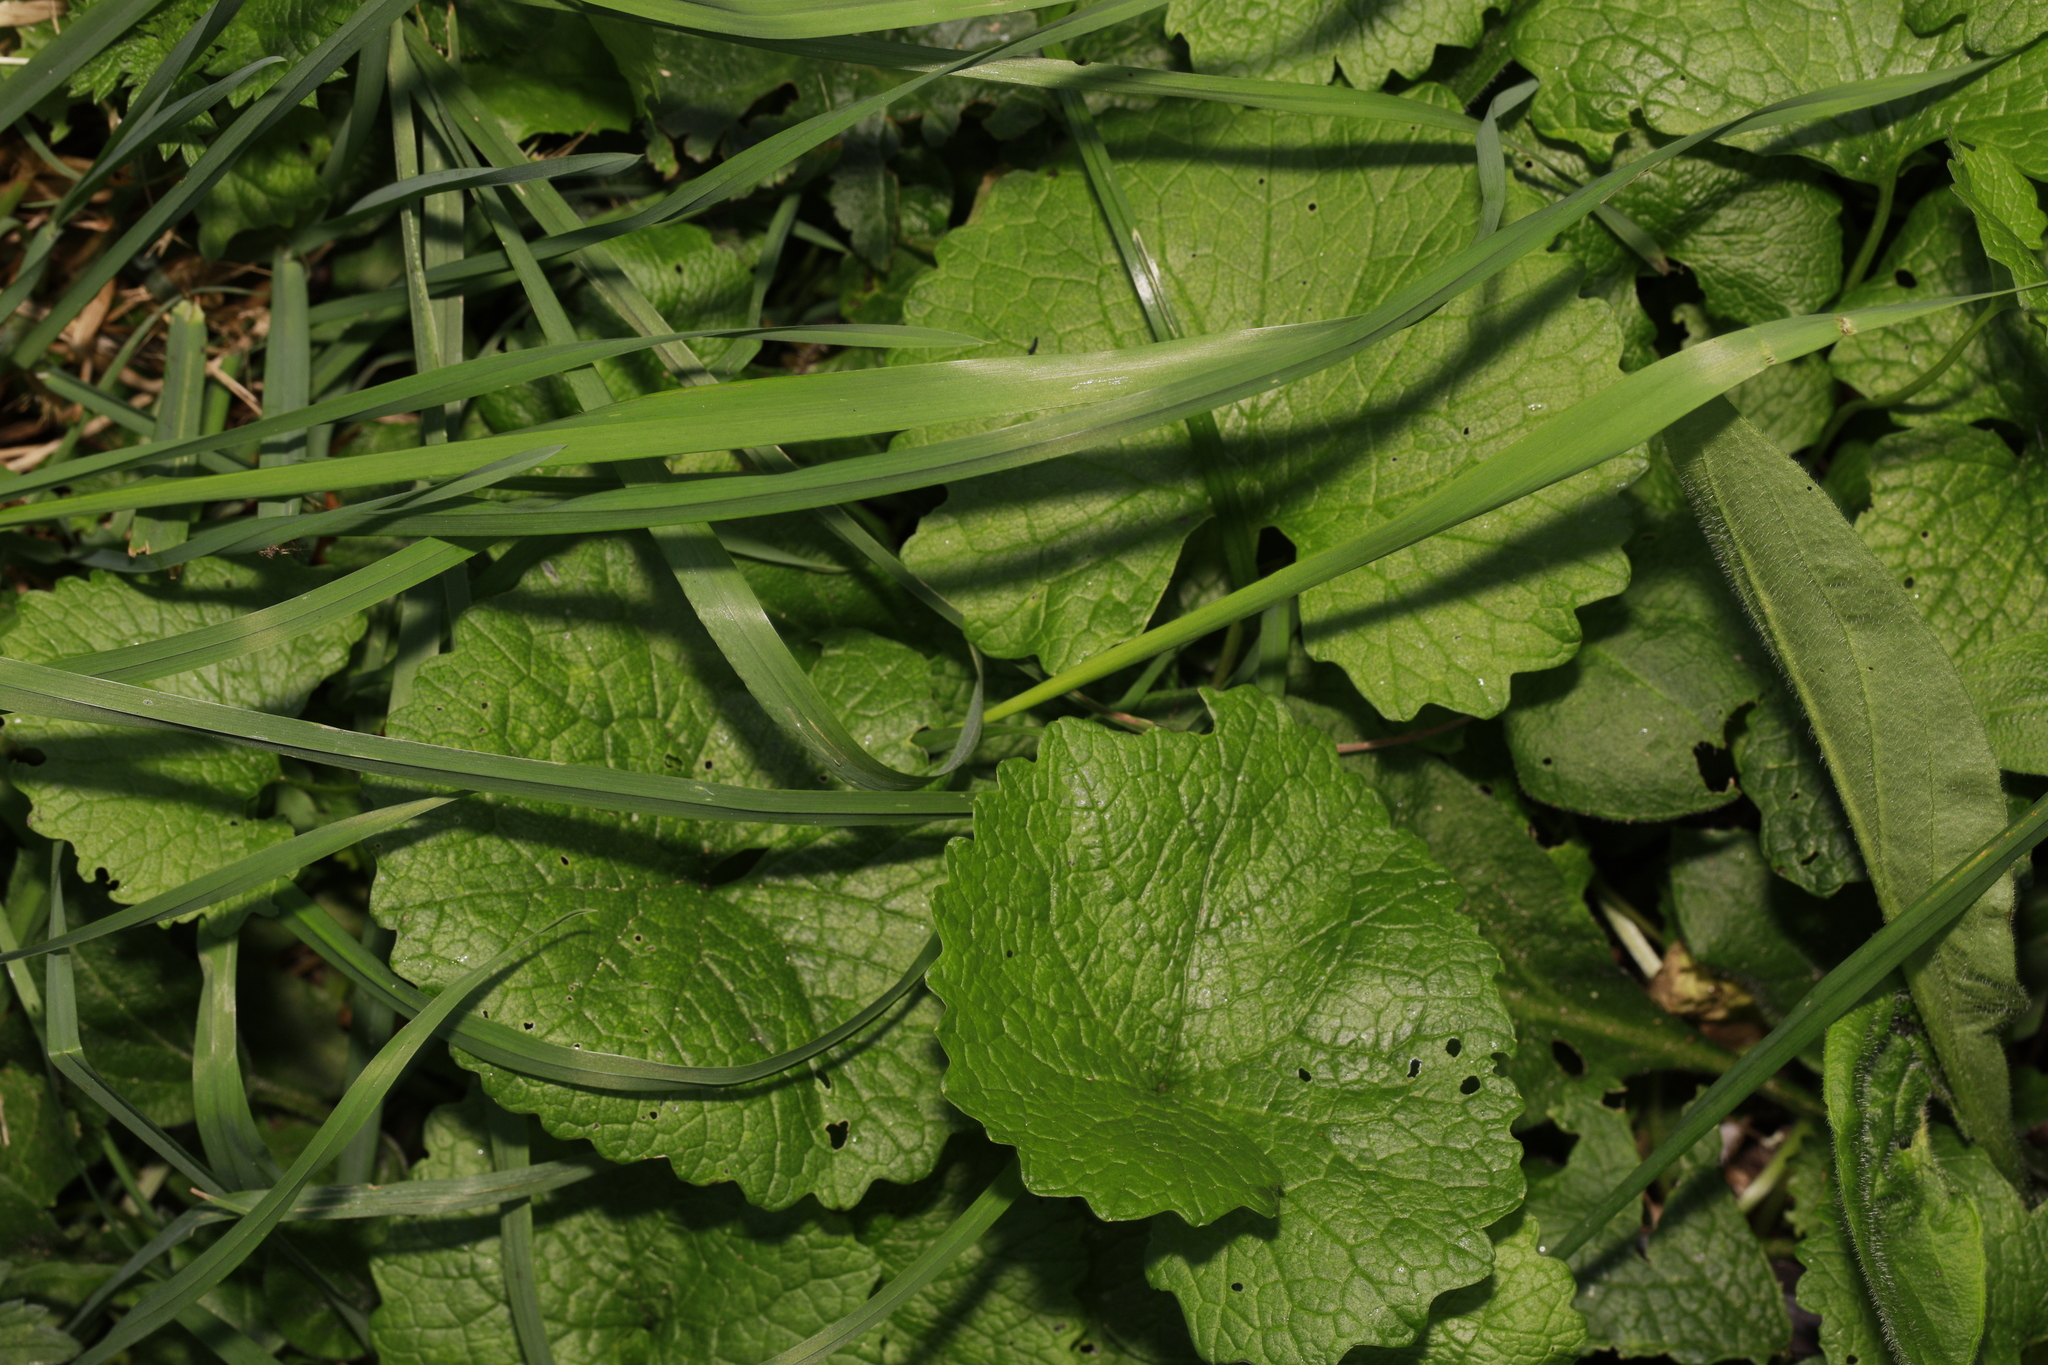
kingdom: Plantae
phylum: Tracheophyta
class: Magnoliopsida
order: Brassicales
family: Brassicaceae
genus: Alliaria
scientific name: Alliaria petiolata
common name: Garlic mustard
